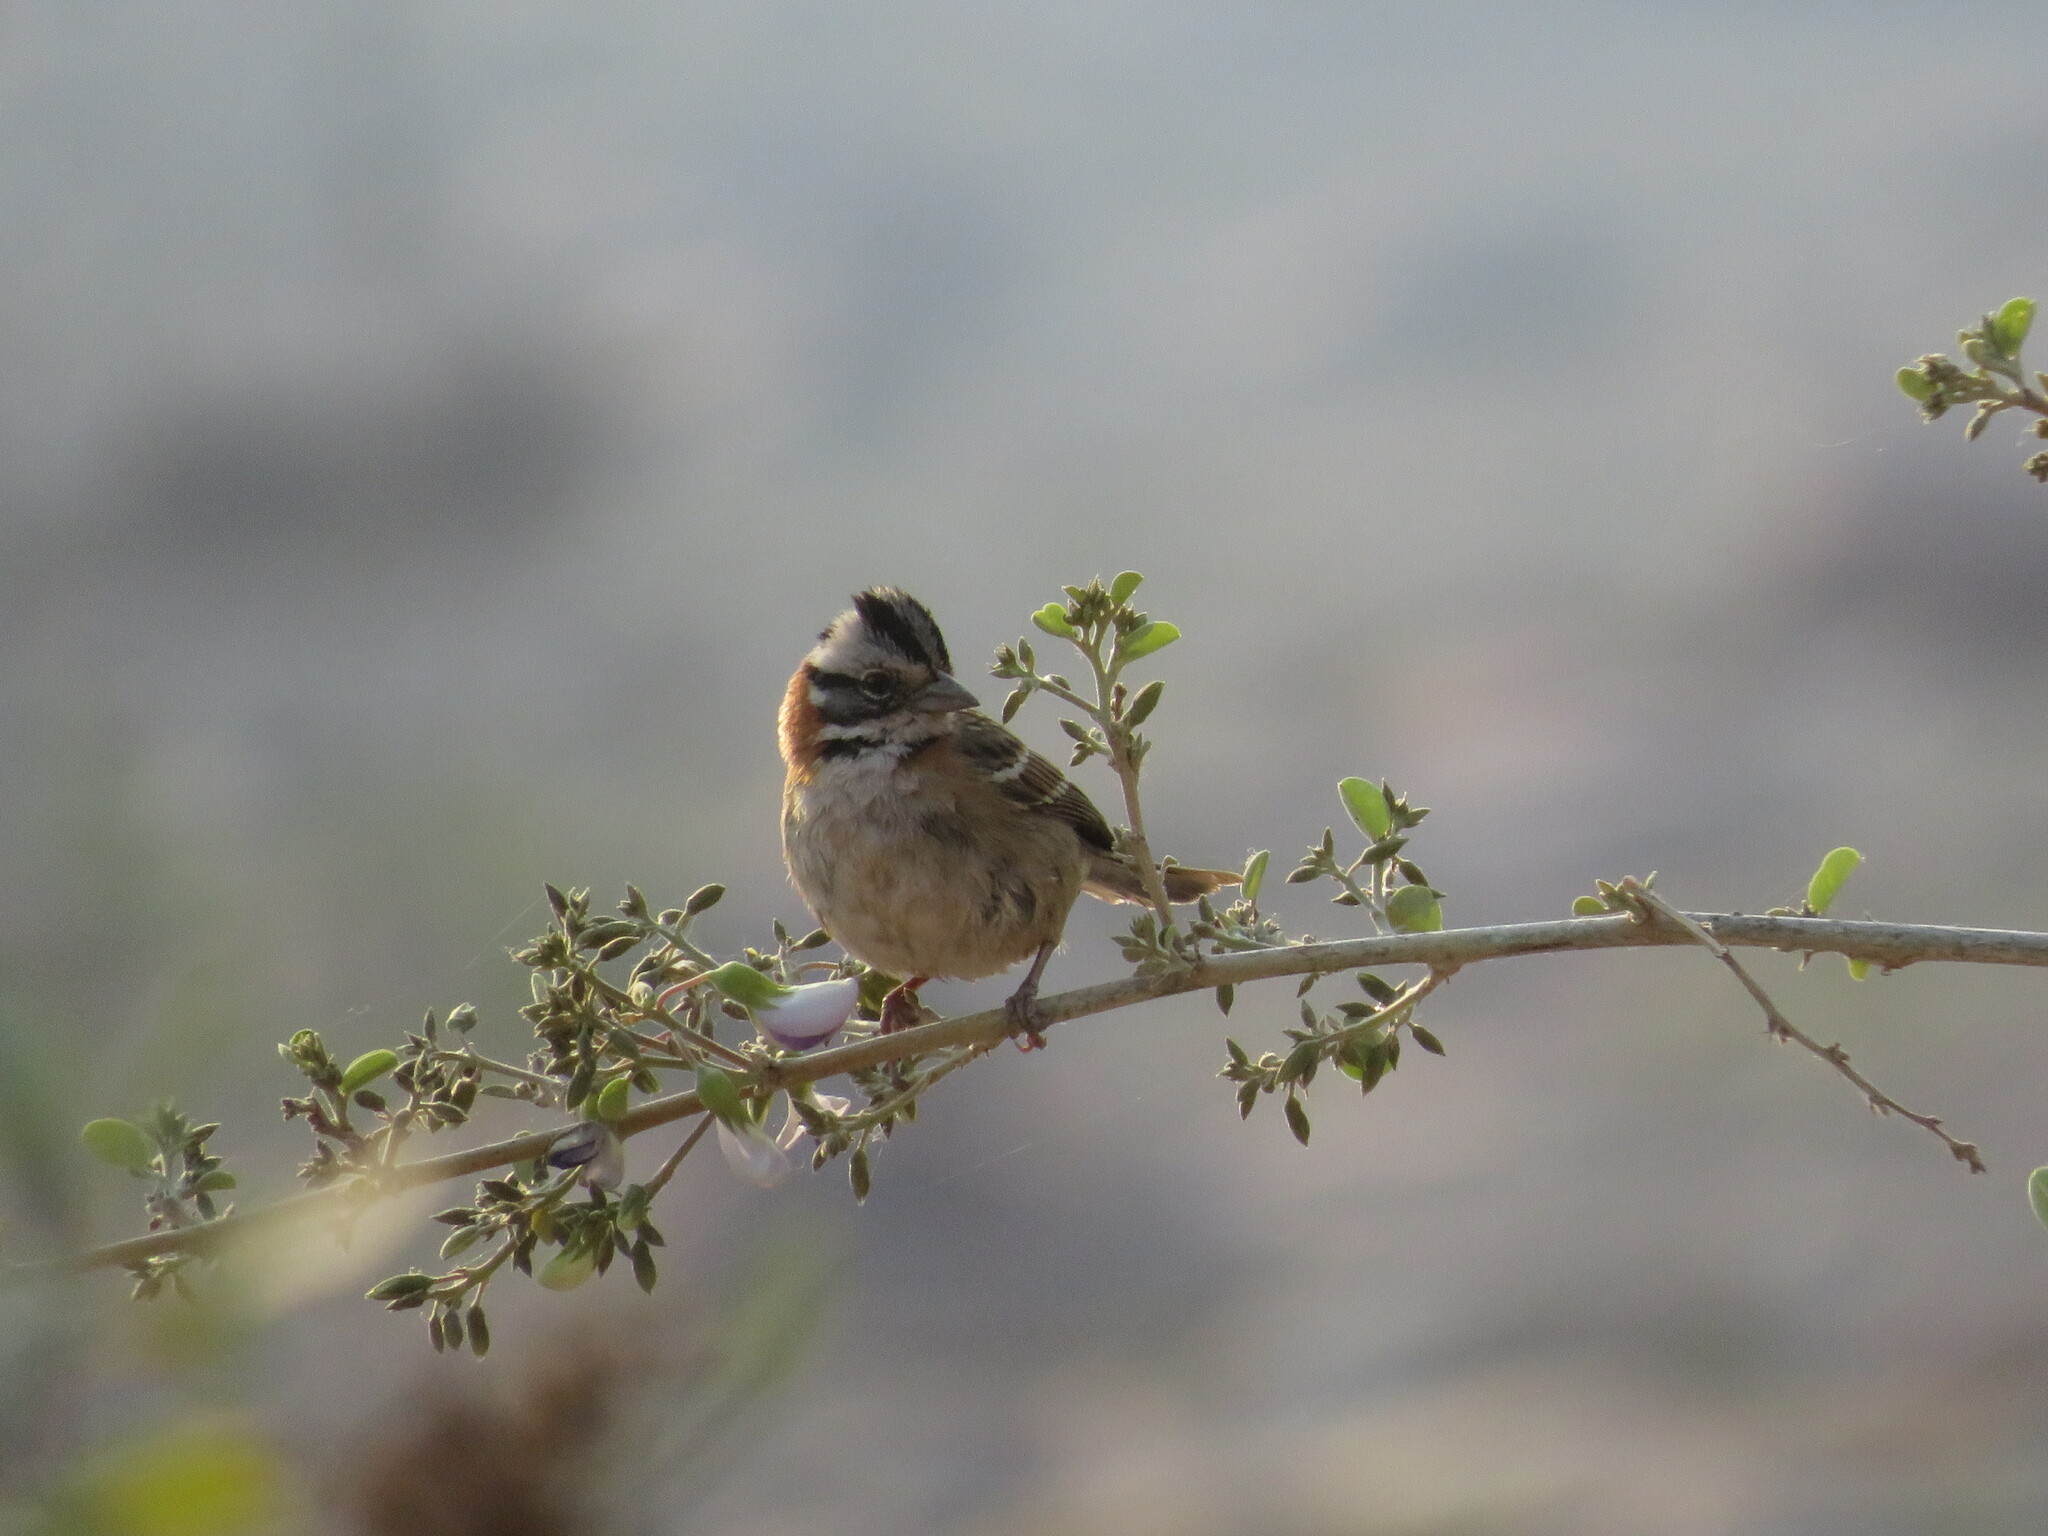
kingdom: Animalia
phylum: Chordata
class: Aves
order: Passeriformes
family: Passerellidae
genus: Zonotrichia
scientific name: Zonotrichia capensis
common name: Rufous-collared sparrow
